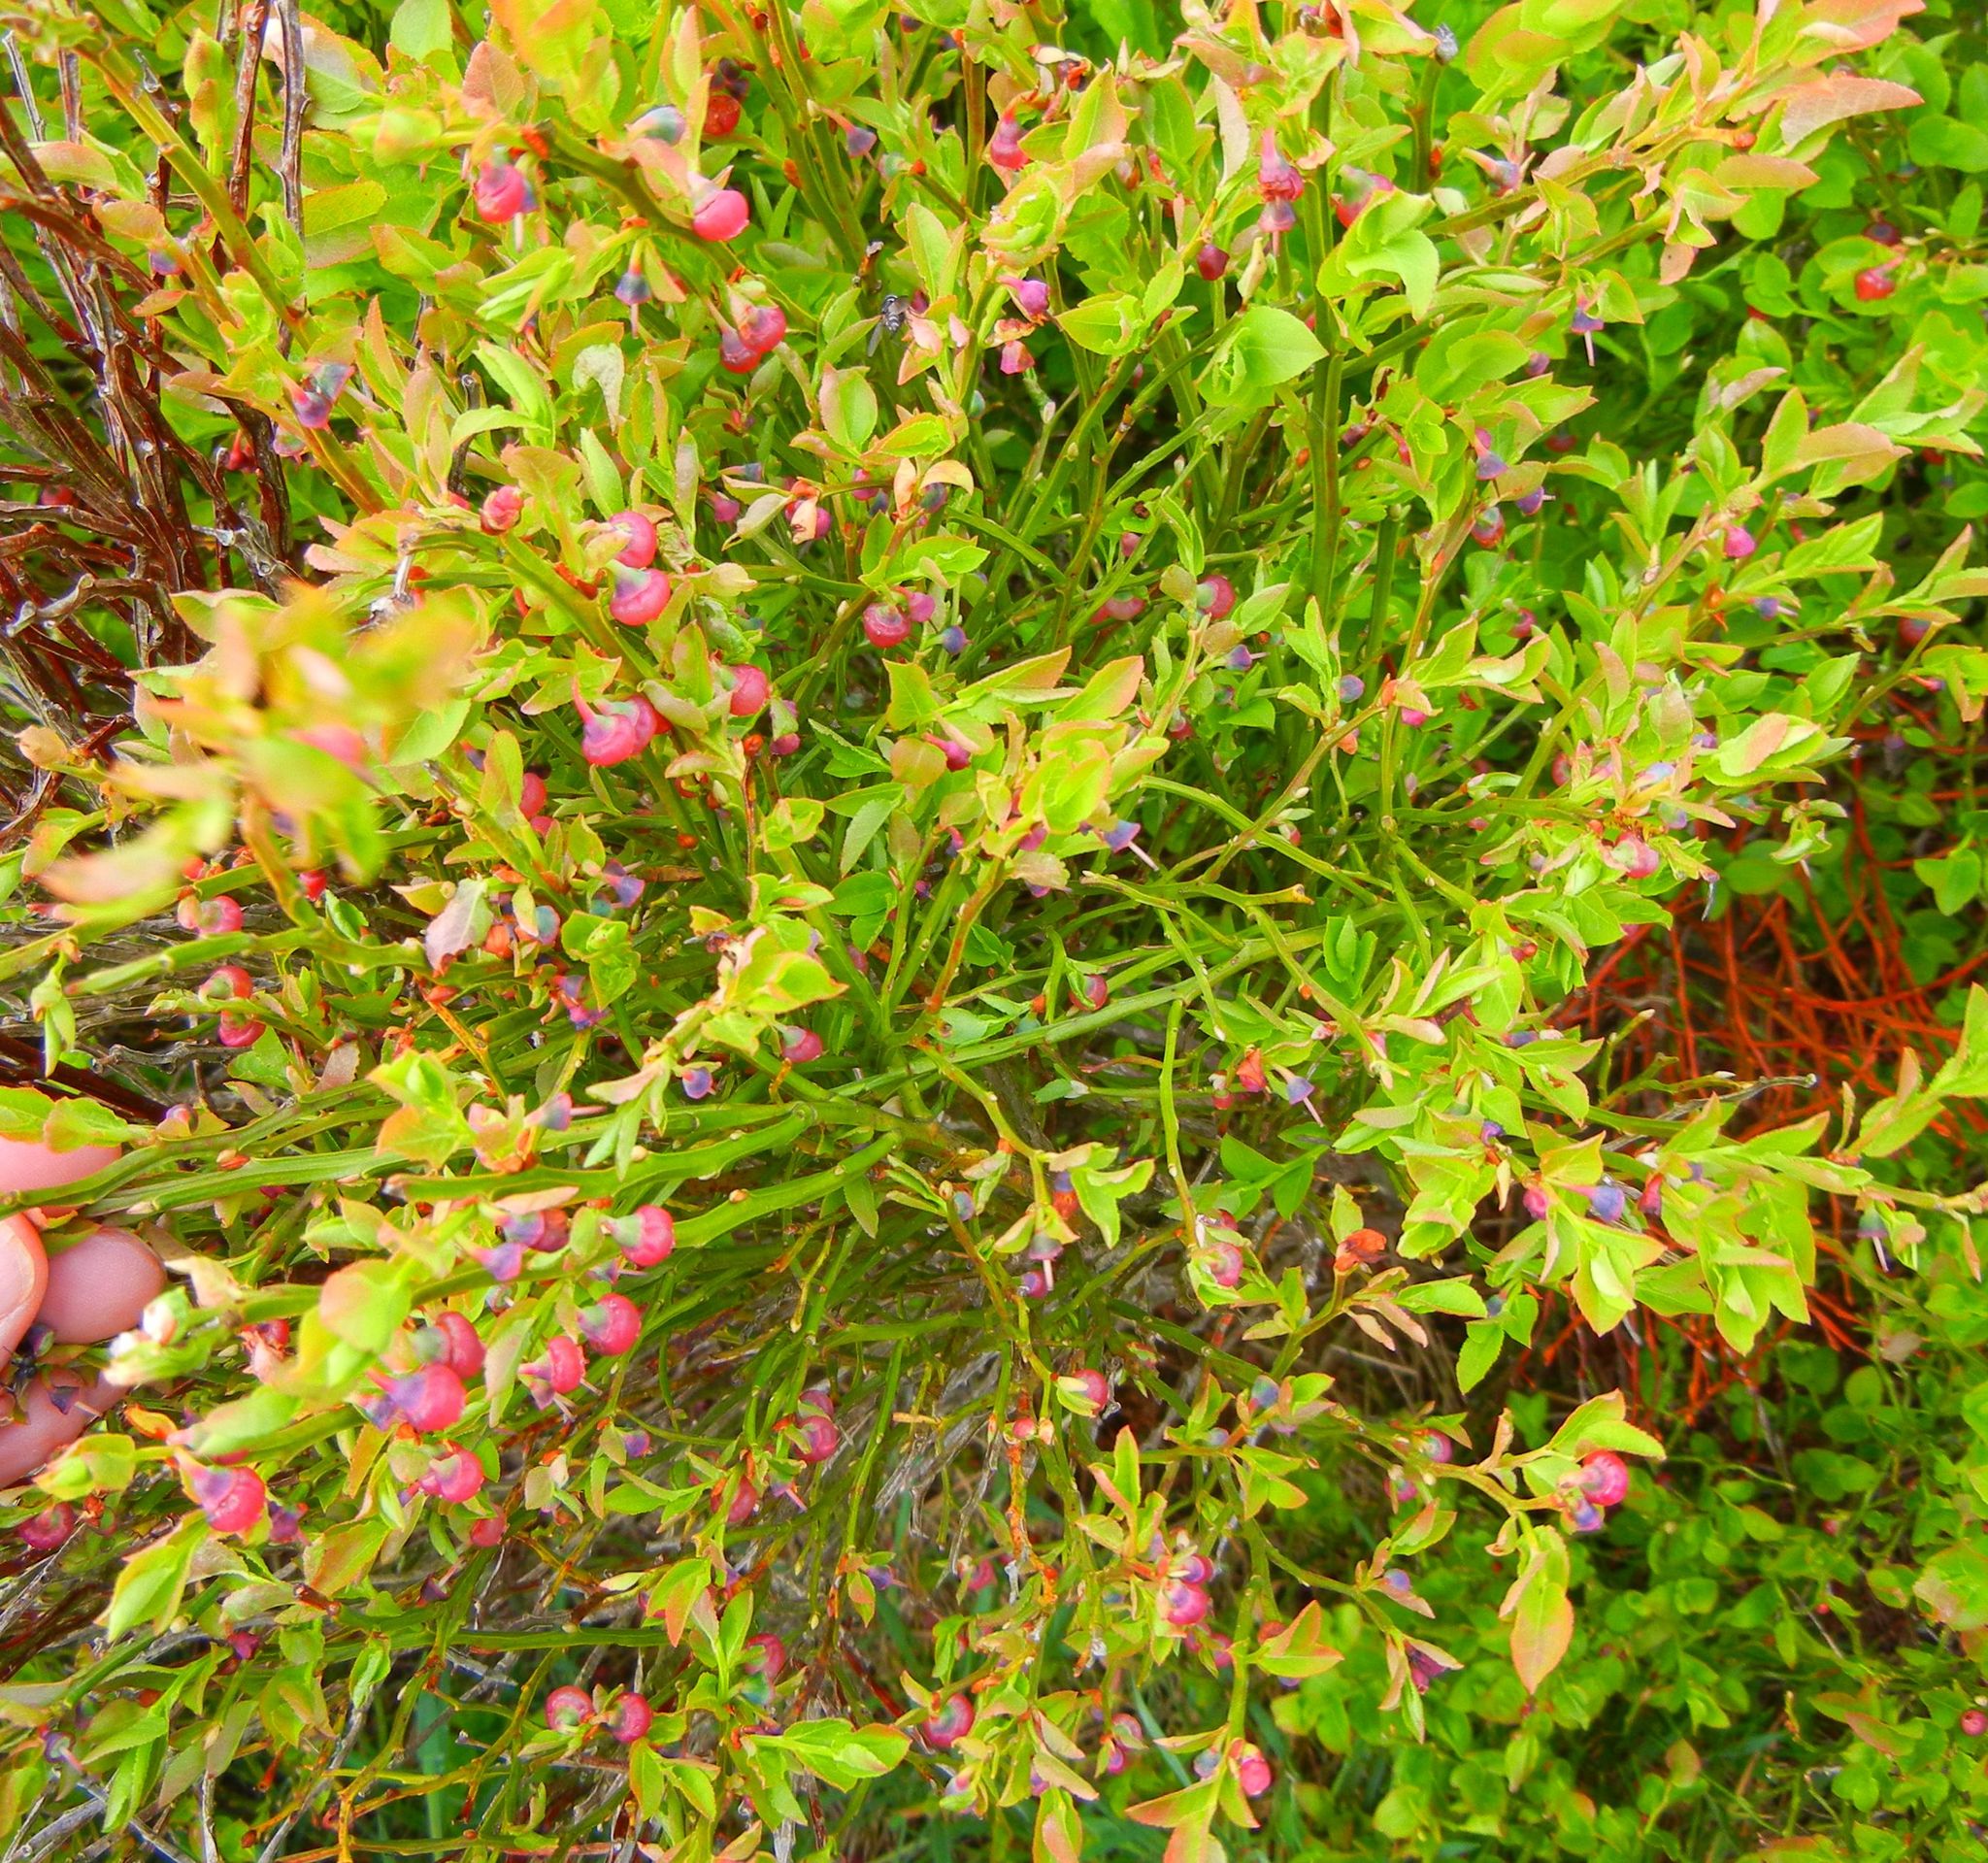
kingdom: Plantae
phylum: Tracheophyta
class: Magnoliopsida
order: Ericales
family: Ericaceae
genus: Vaccinium
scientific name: Vaccinium myrtillus
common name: Bilberry
